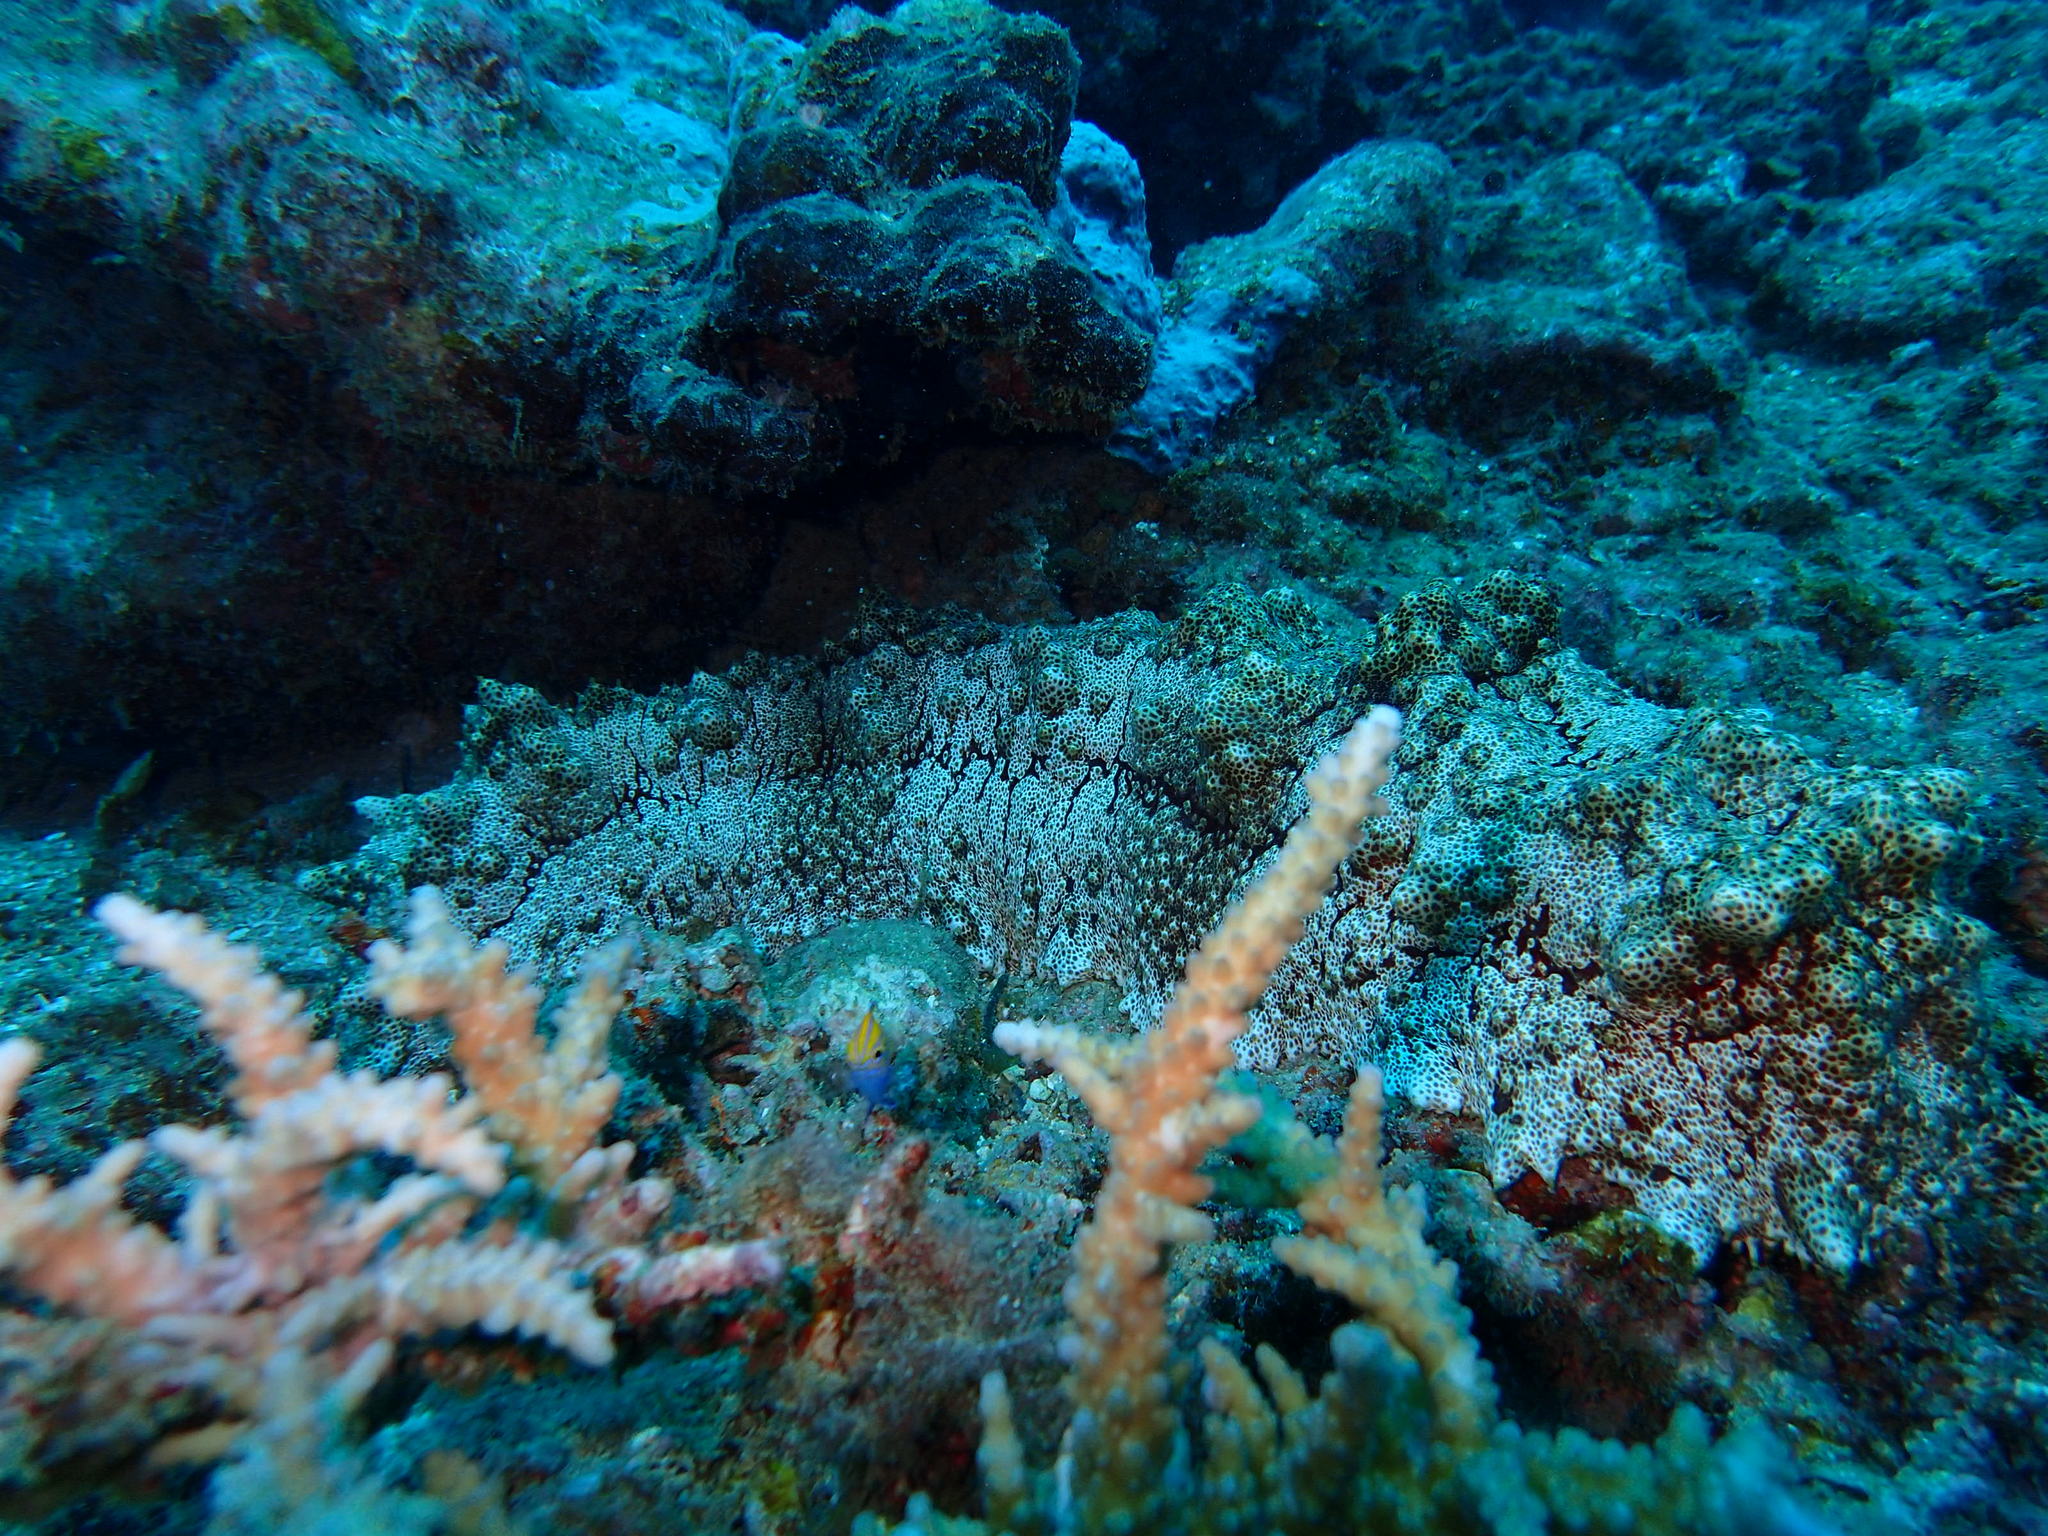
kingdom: Animalia
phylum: Echinodermata
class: Holothuroidea
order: Synallactida
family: Stichopodidae
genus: Thelenota
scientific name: Thelenota anax
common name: Amberfish
